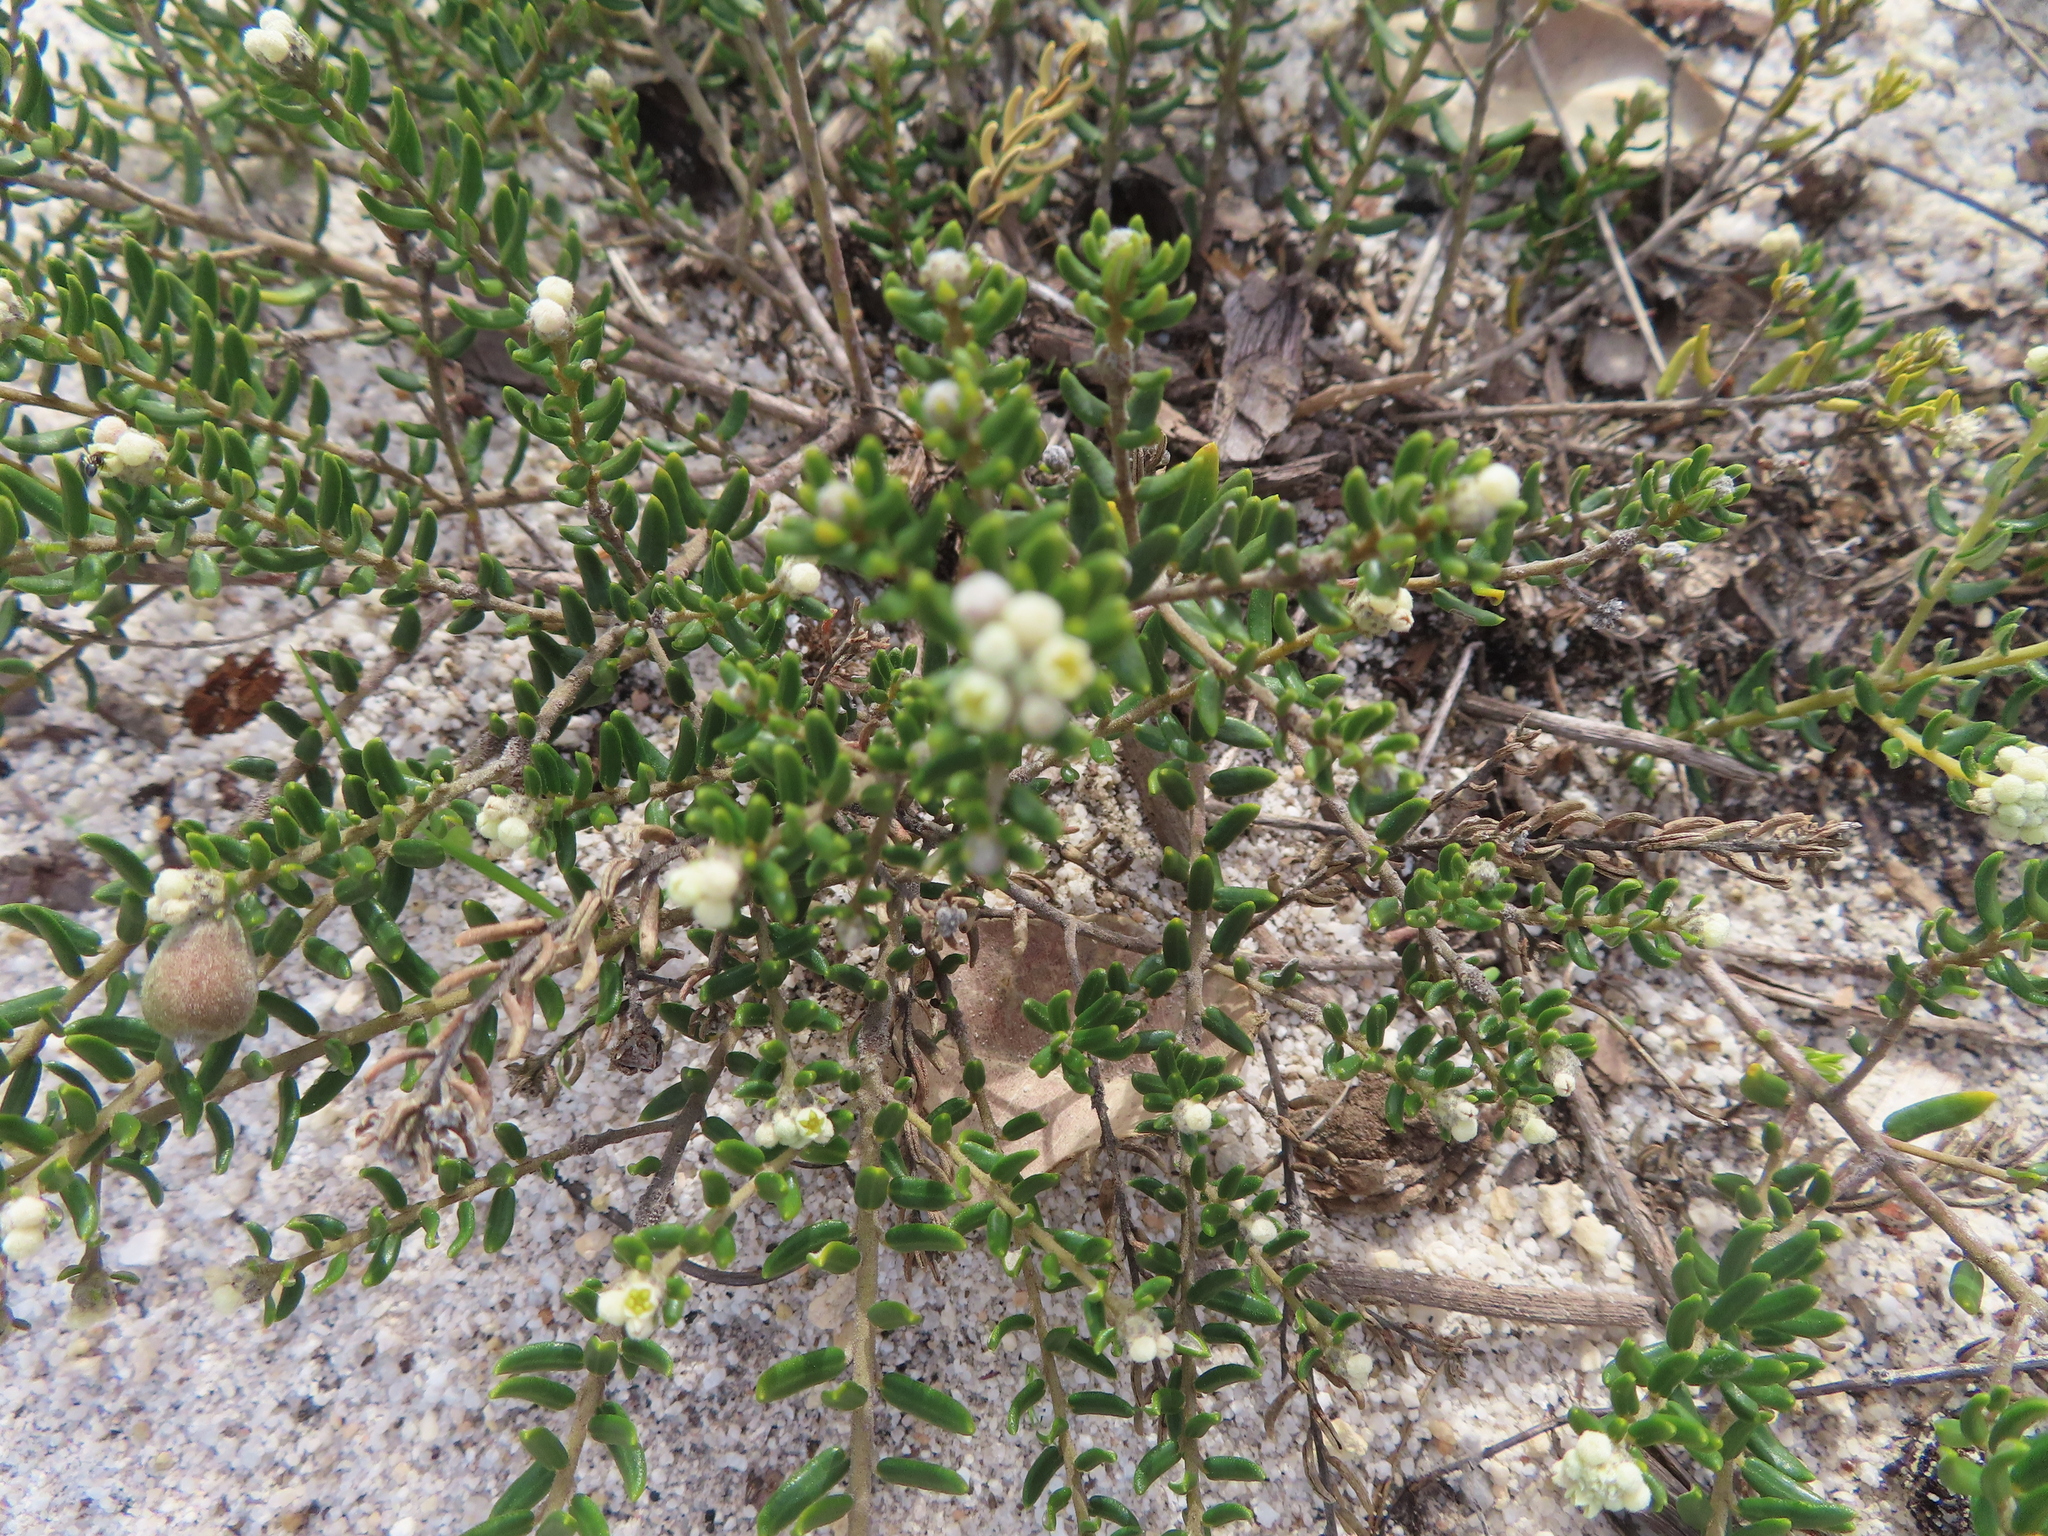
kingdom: Plantae
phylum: Tracheophyta
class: Magnoliopsida
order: Rosales
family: Rhamnaceae
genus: Phylica
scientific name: Phylica lasiocarpa
